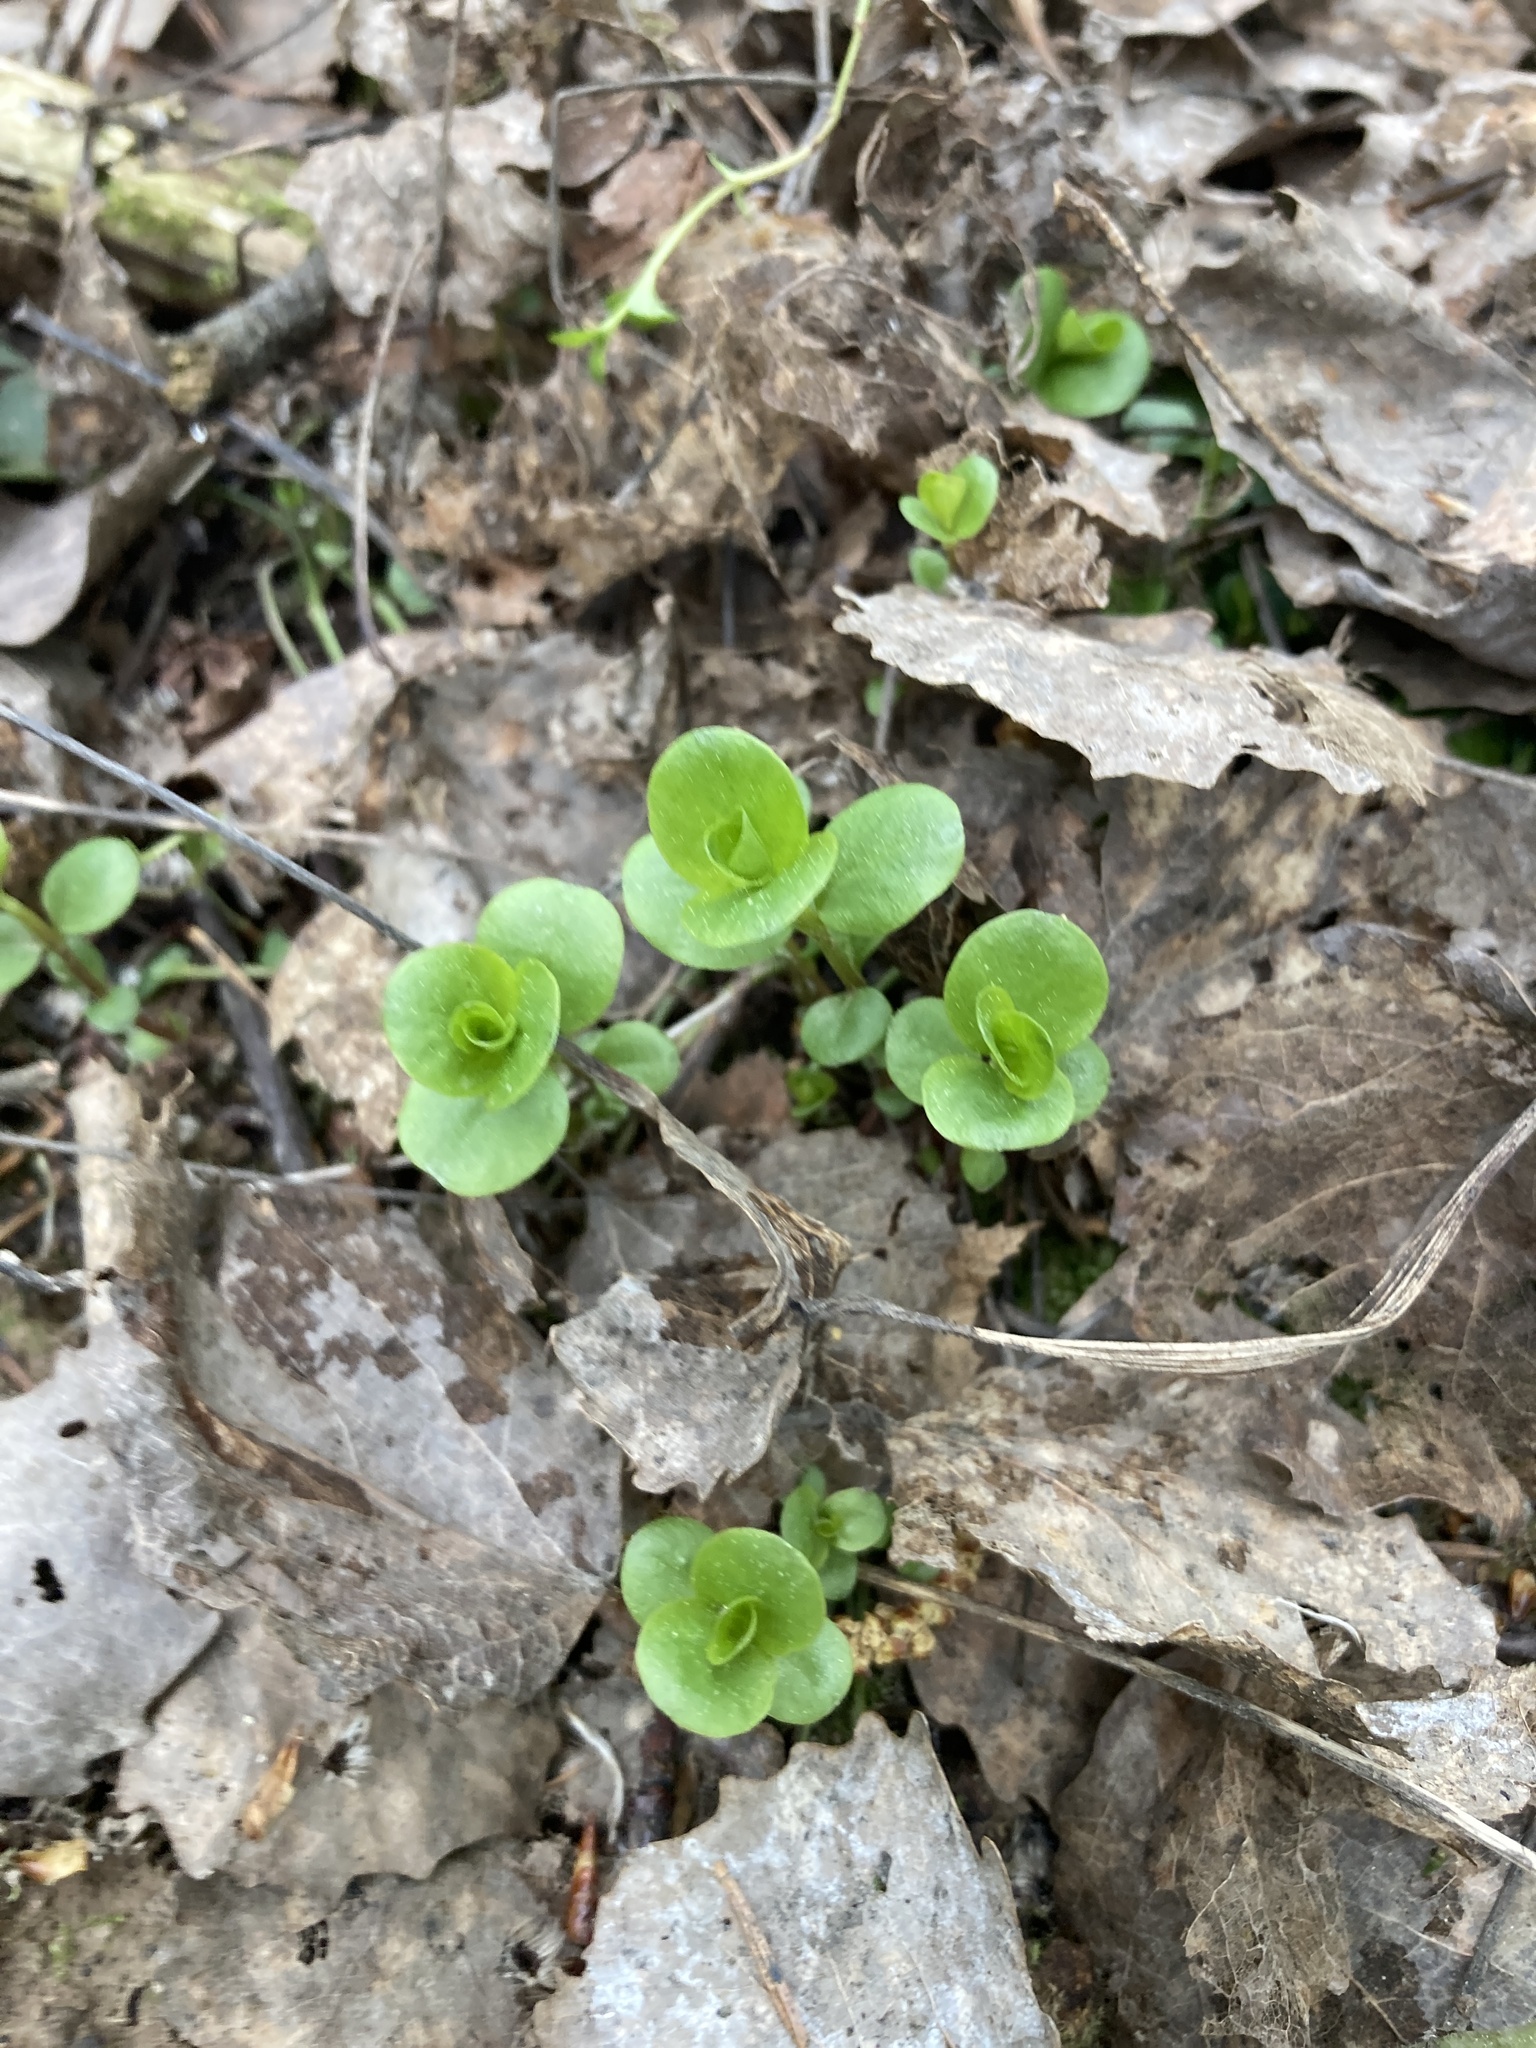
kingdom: Plantae
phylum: Tracheophyta
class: Magnoliopsida
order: Ericales
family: Primulaceae
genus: Lysimachia
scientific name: Lysimachia nummularia
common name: Moneywort
